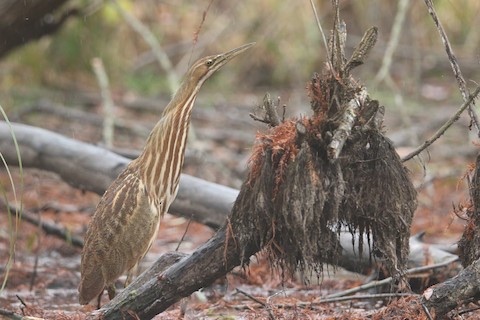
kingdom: Animalia
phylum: Chordata
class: Aves
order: Pelecaniformes
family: Ardeidae
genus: Botaurus
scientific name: Botaurus lentiginosus
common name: American bittern
